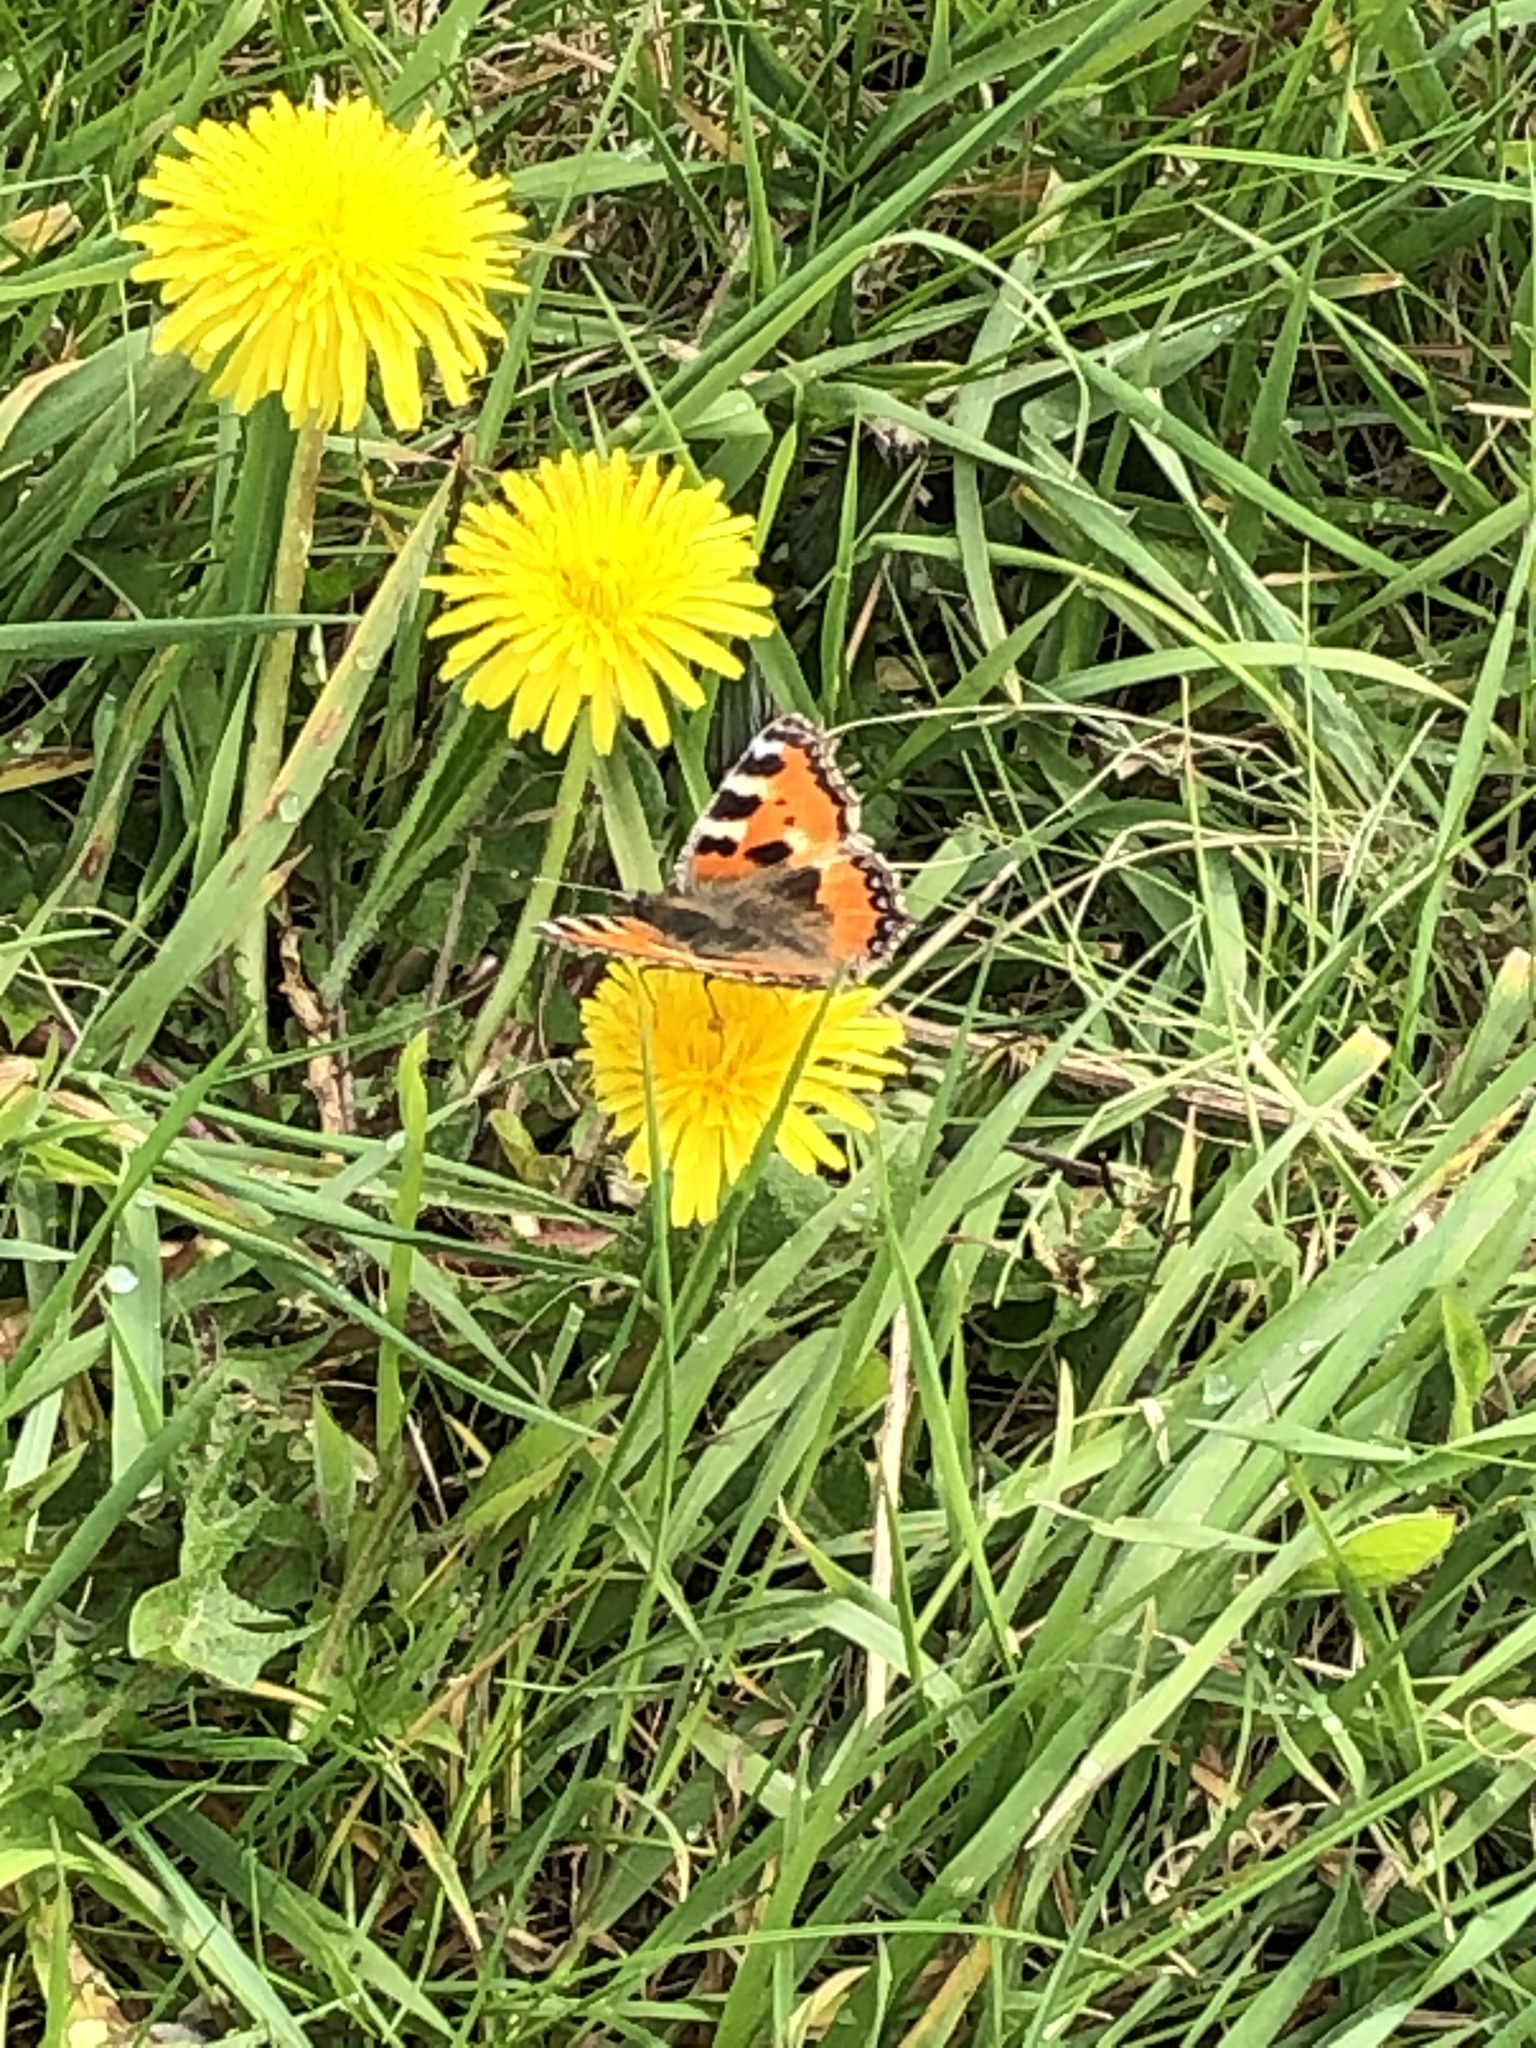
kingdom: Animalia
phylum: Arthropoda
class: Insecta
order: Lepidoptera
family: Nymphalidae
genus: Aglais
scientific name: Aglais urticae
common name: Small tortoiseshell
